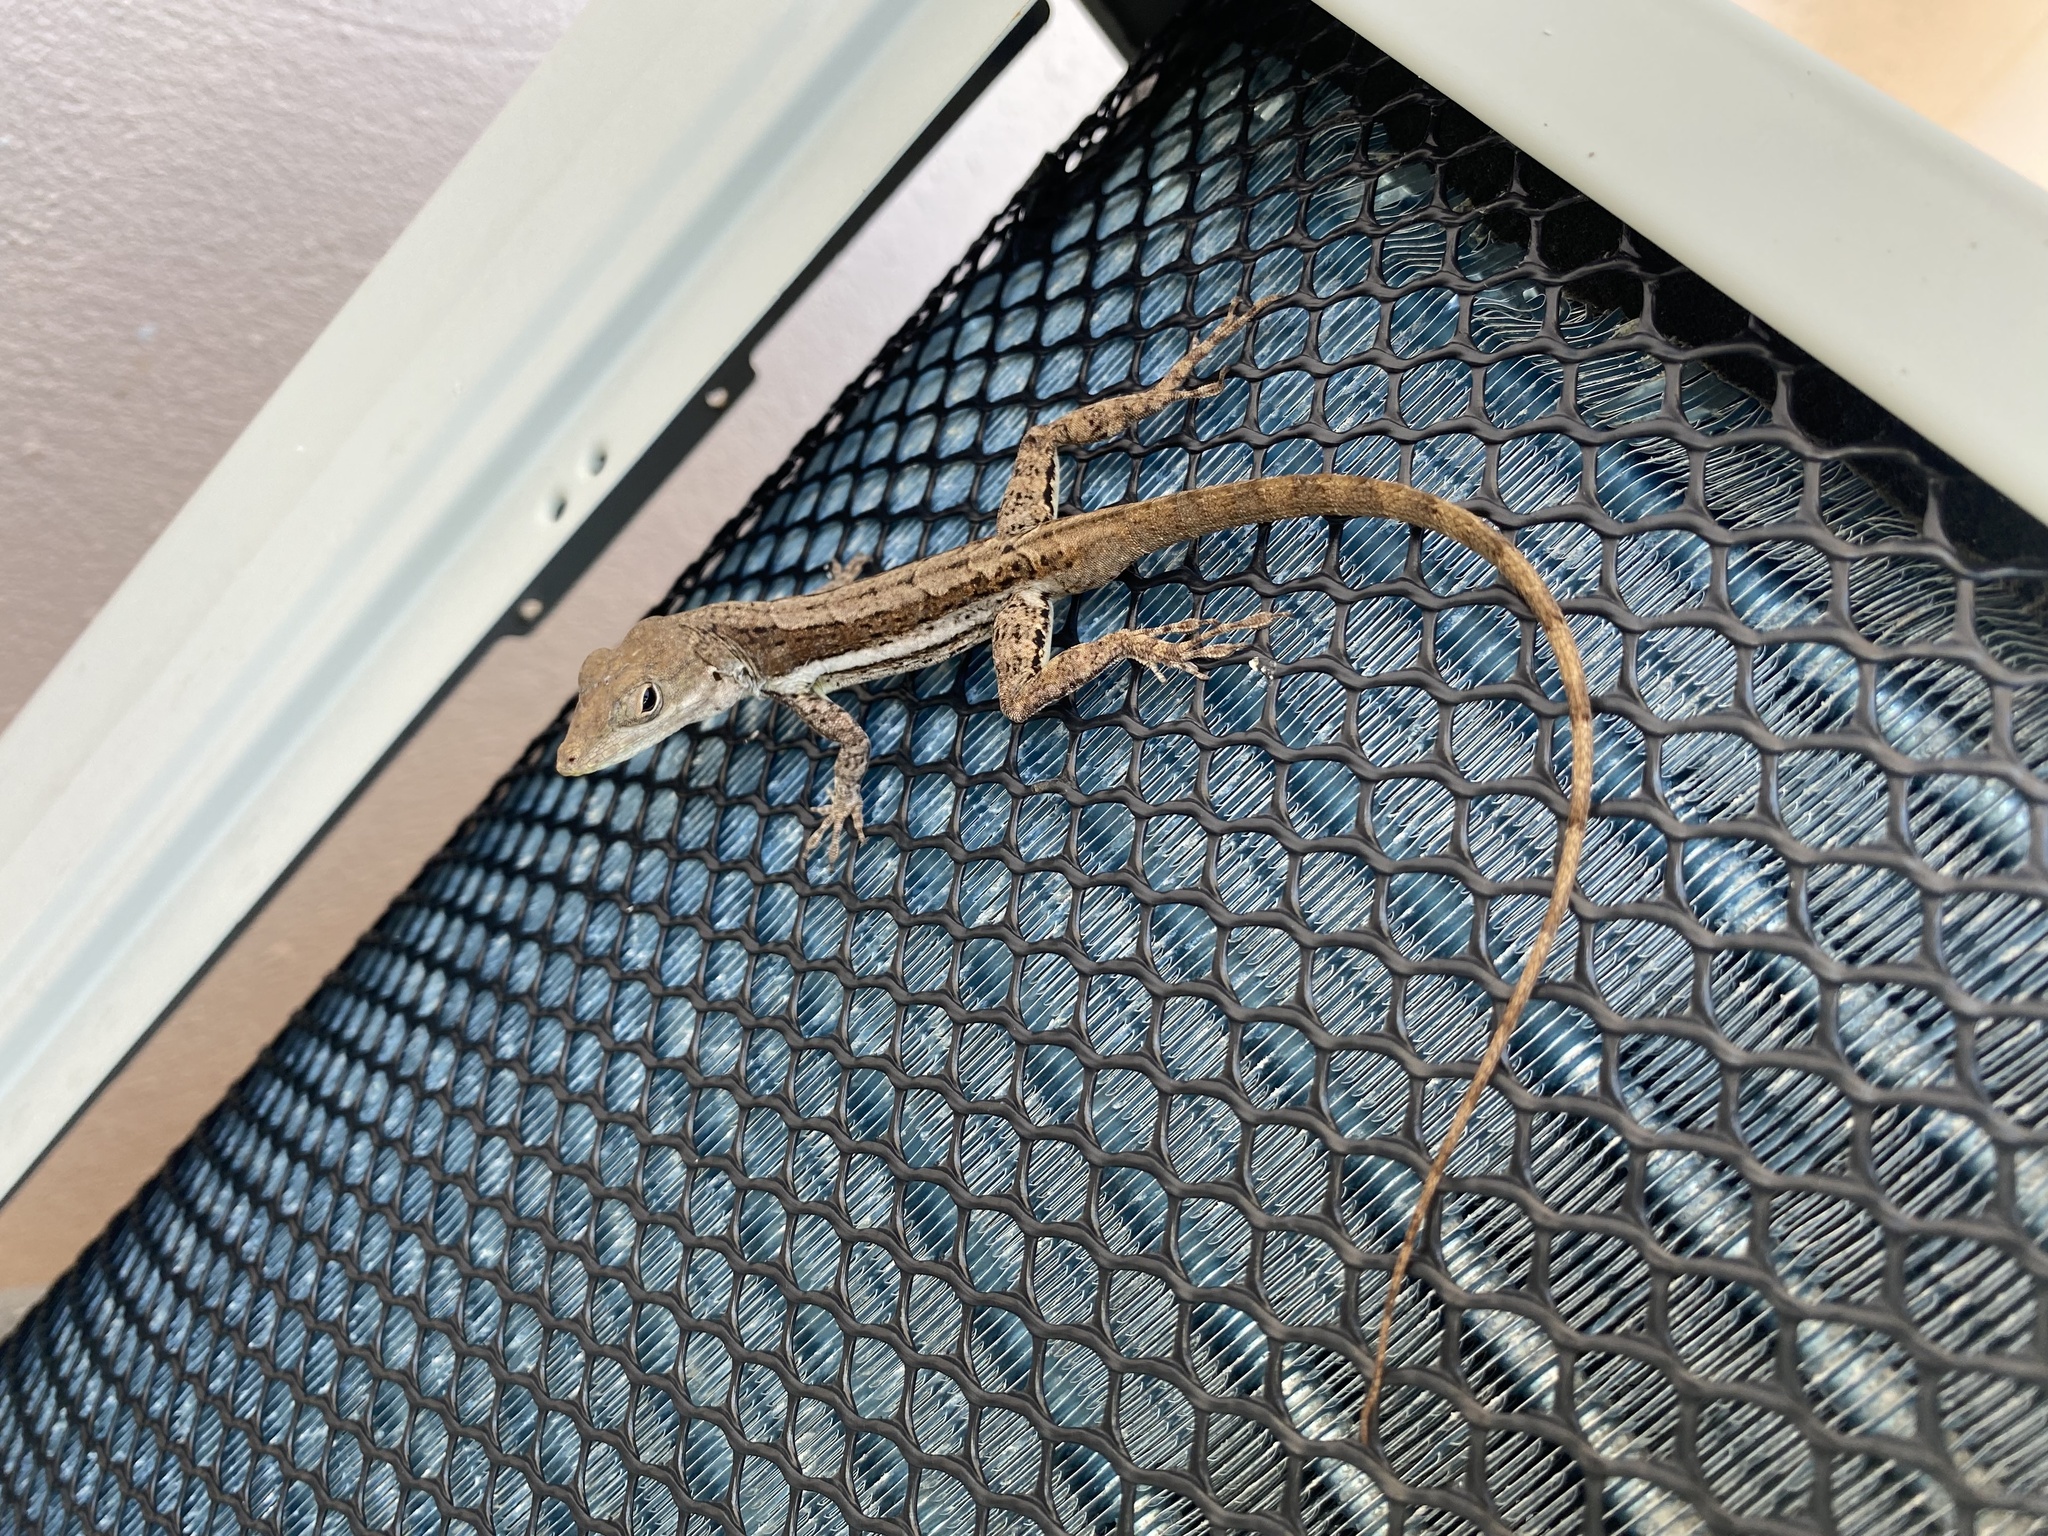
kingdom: Animalia
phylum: Chordata
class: Squamata
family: Dactyloidae
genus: Anolis
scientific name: Anolis gingivinus
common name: Anguilla anole
